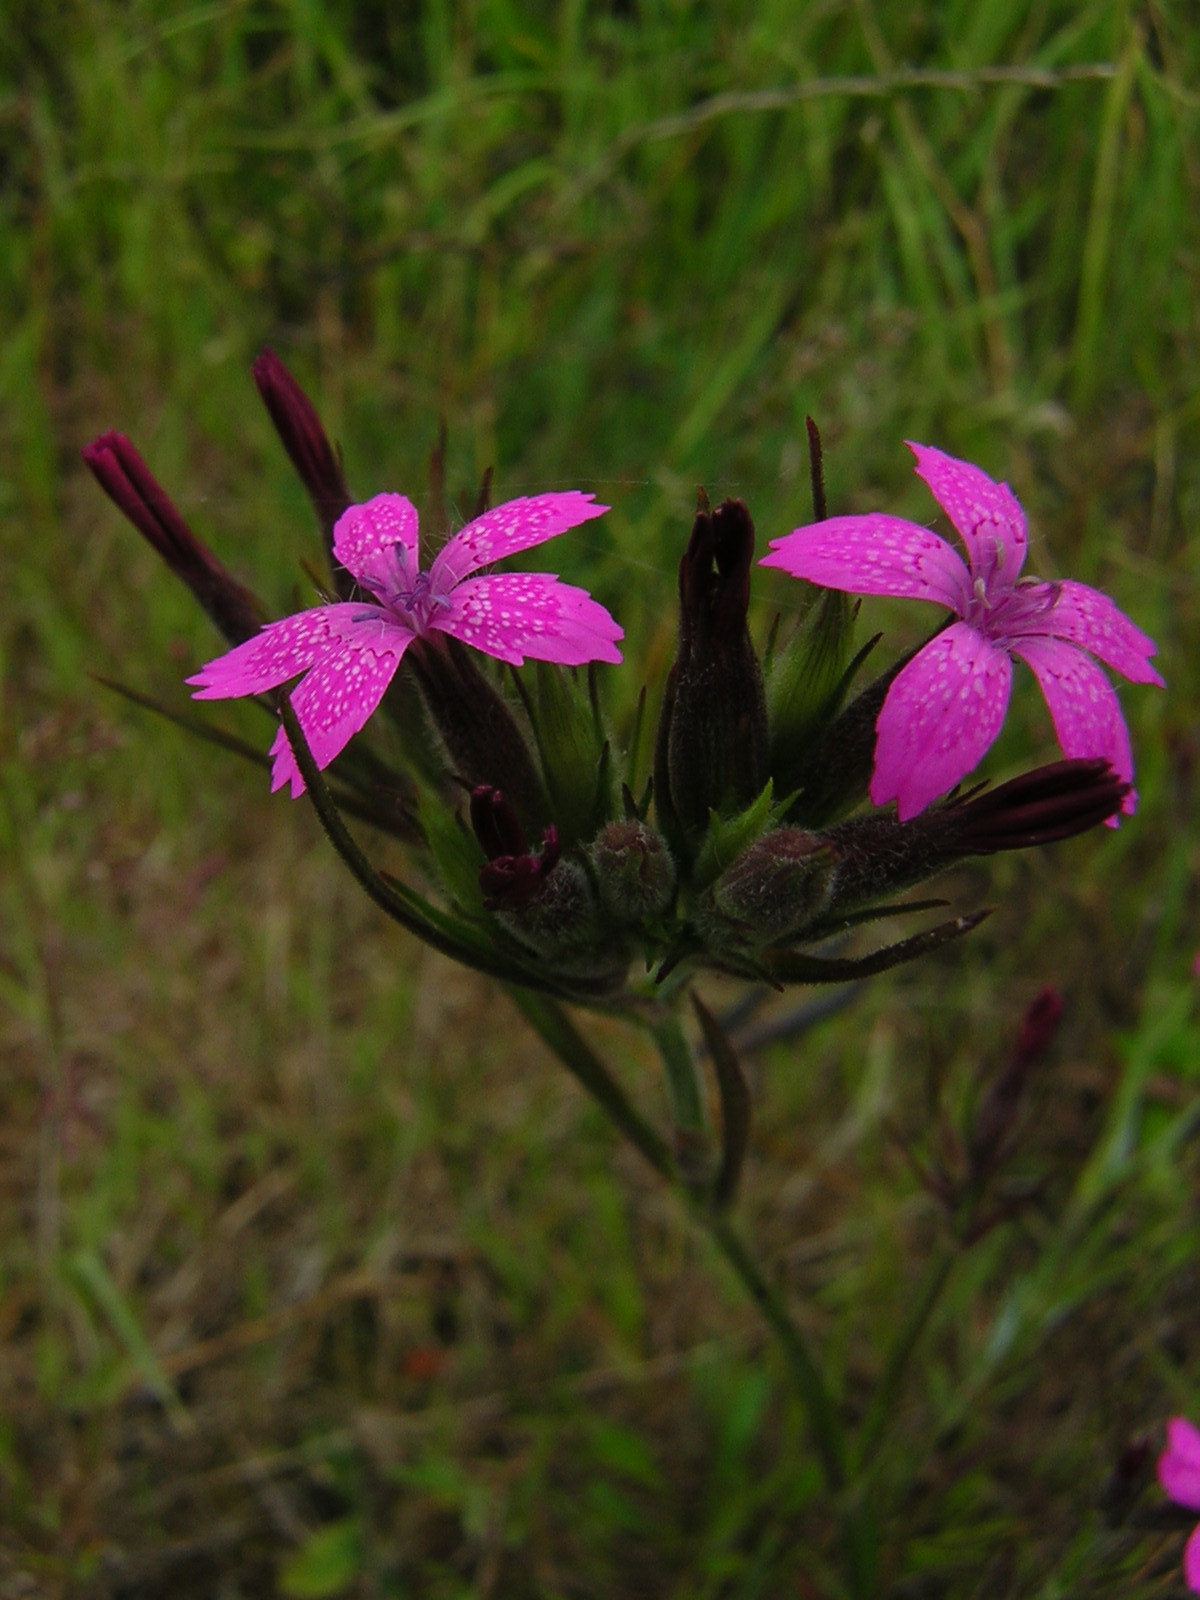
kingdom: Plantae
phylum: Tracheophyta
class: Magnoliopsida
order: Caryophyllales
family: Caryophyllaceae
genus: Dianthus
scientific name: Dianthus armeria
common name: Deptford pink
